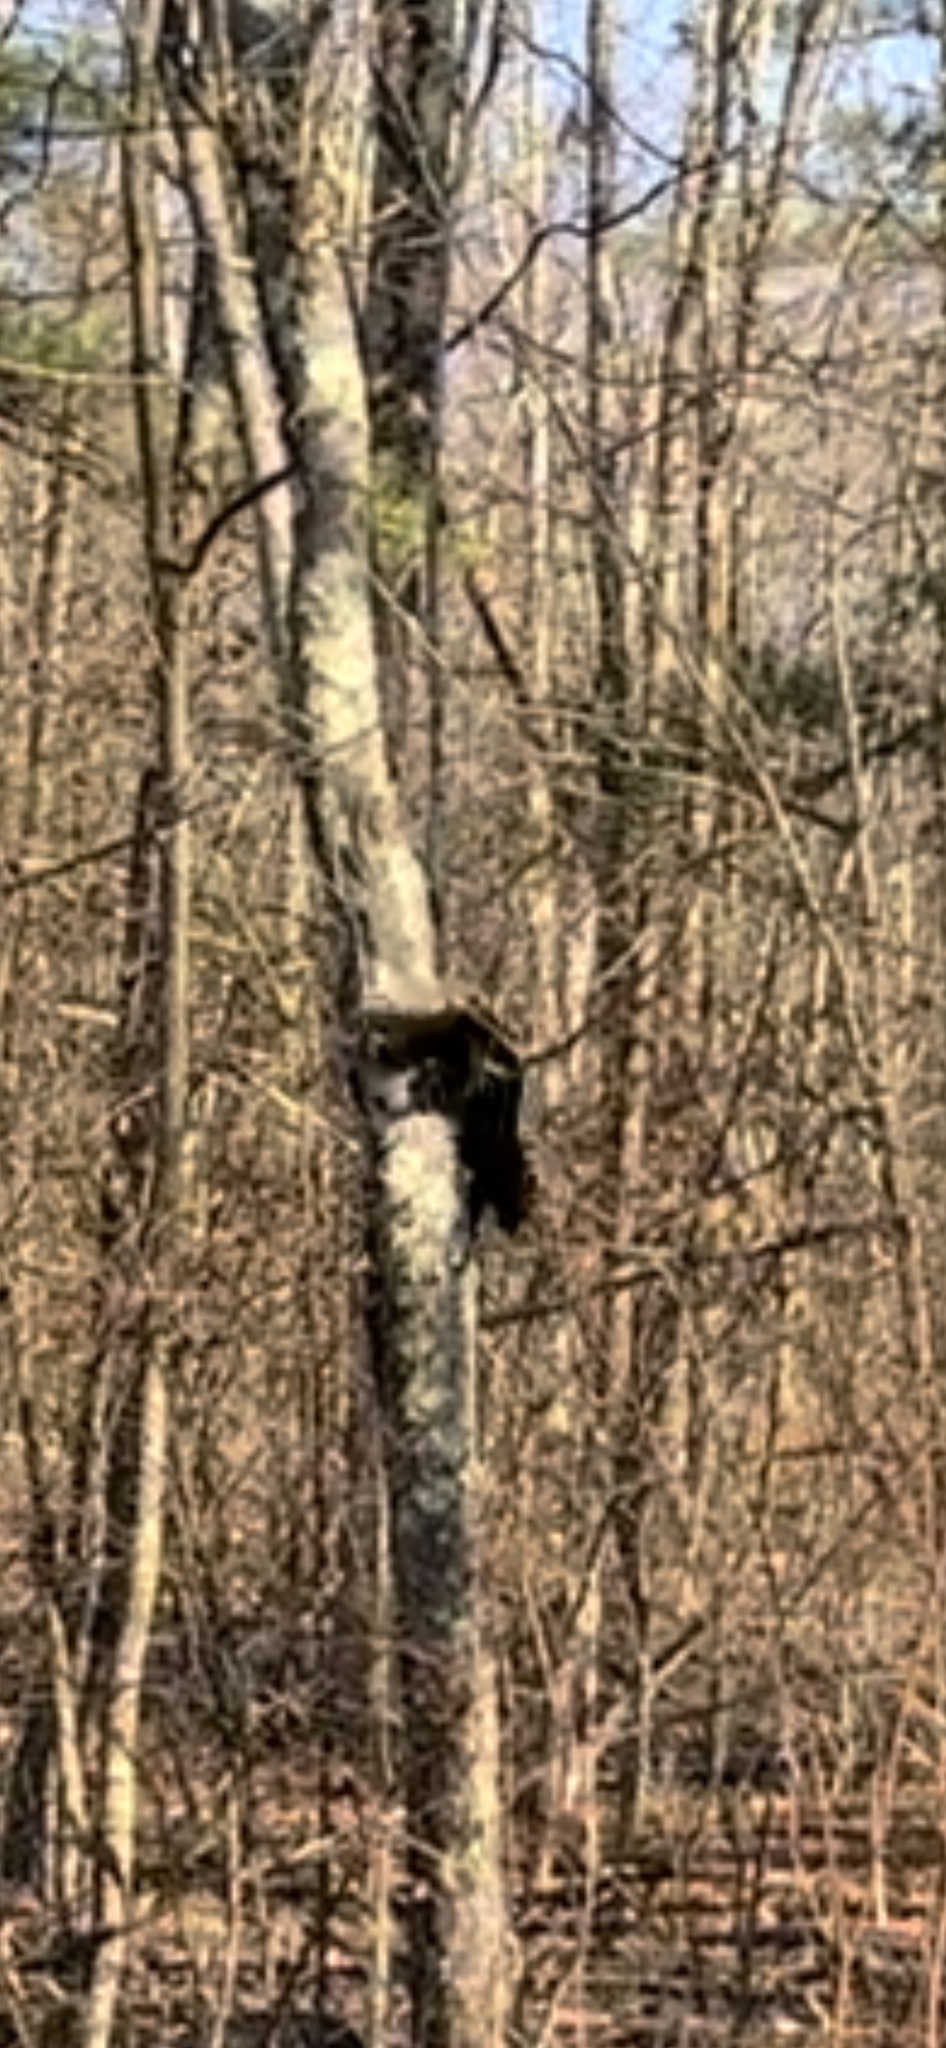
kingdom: Animalia
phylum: Chordata
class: Mammalia
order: Carnivora
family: Mustelidae
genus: Pekania
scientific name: Pekania pennanti
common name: Fisher
